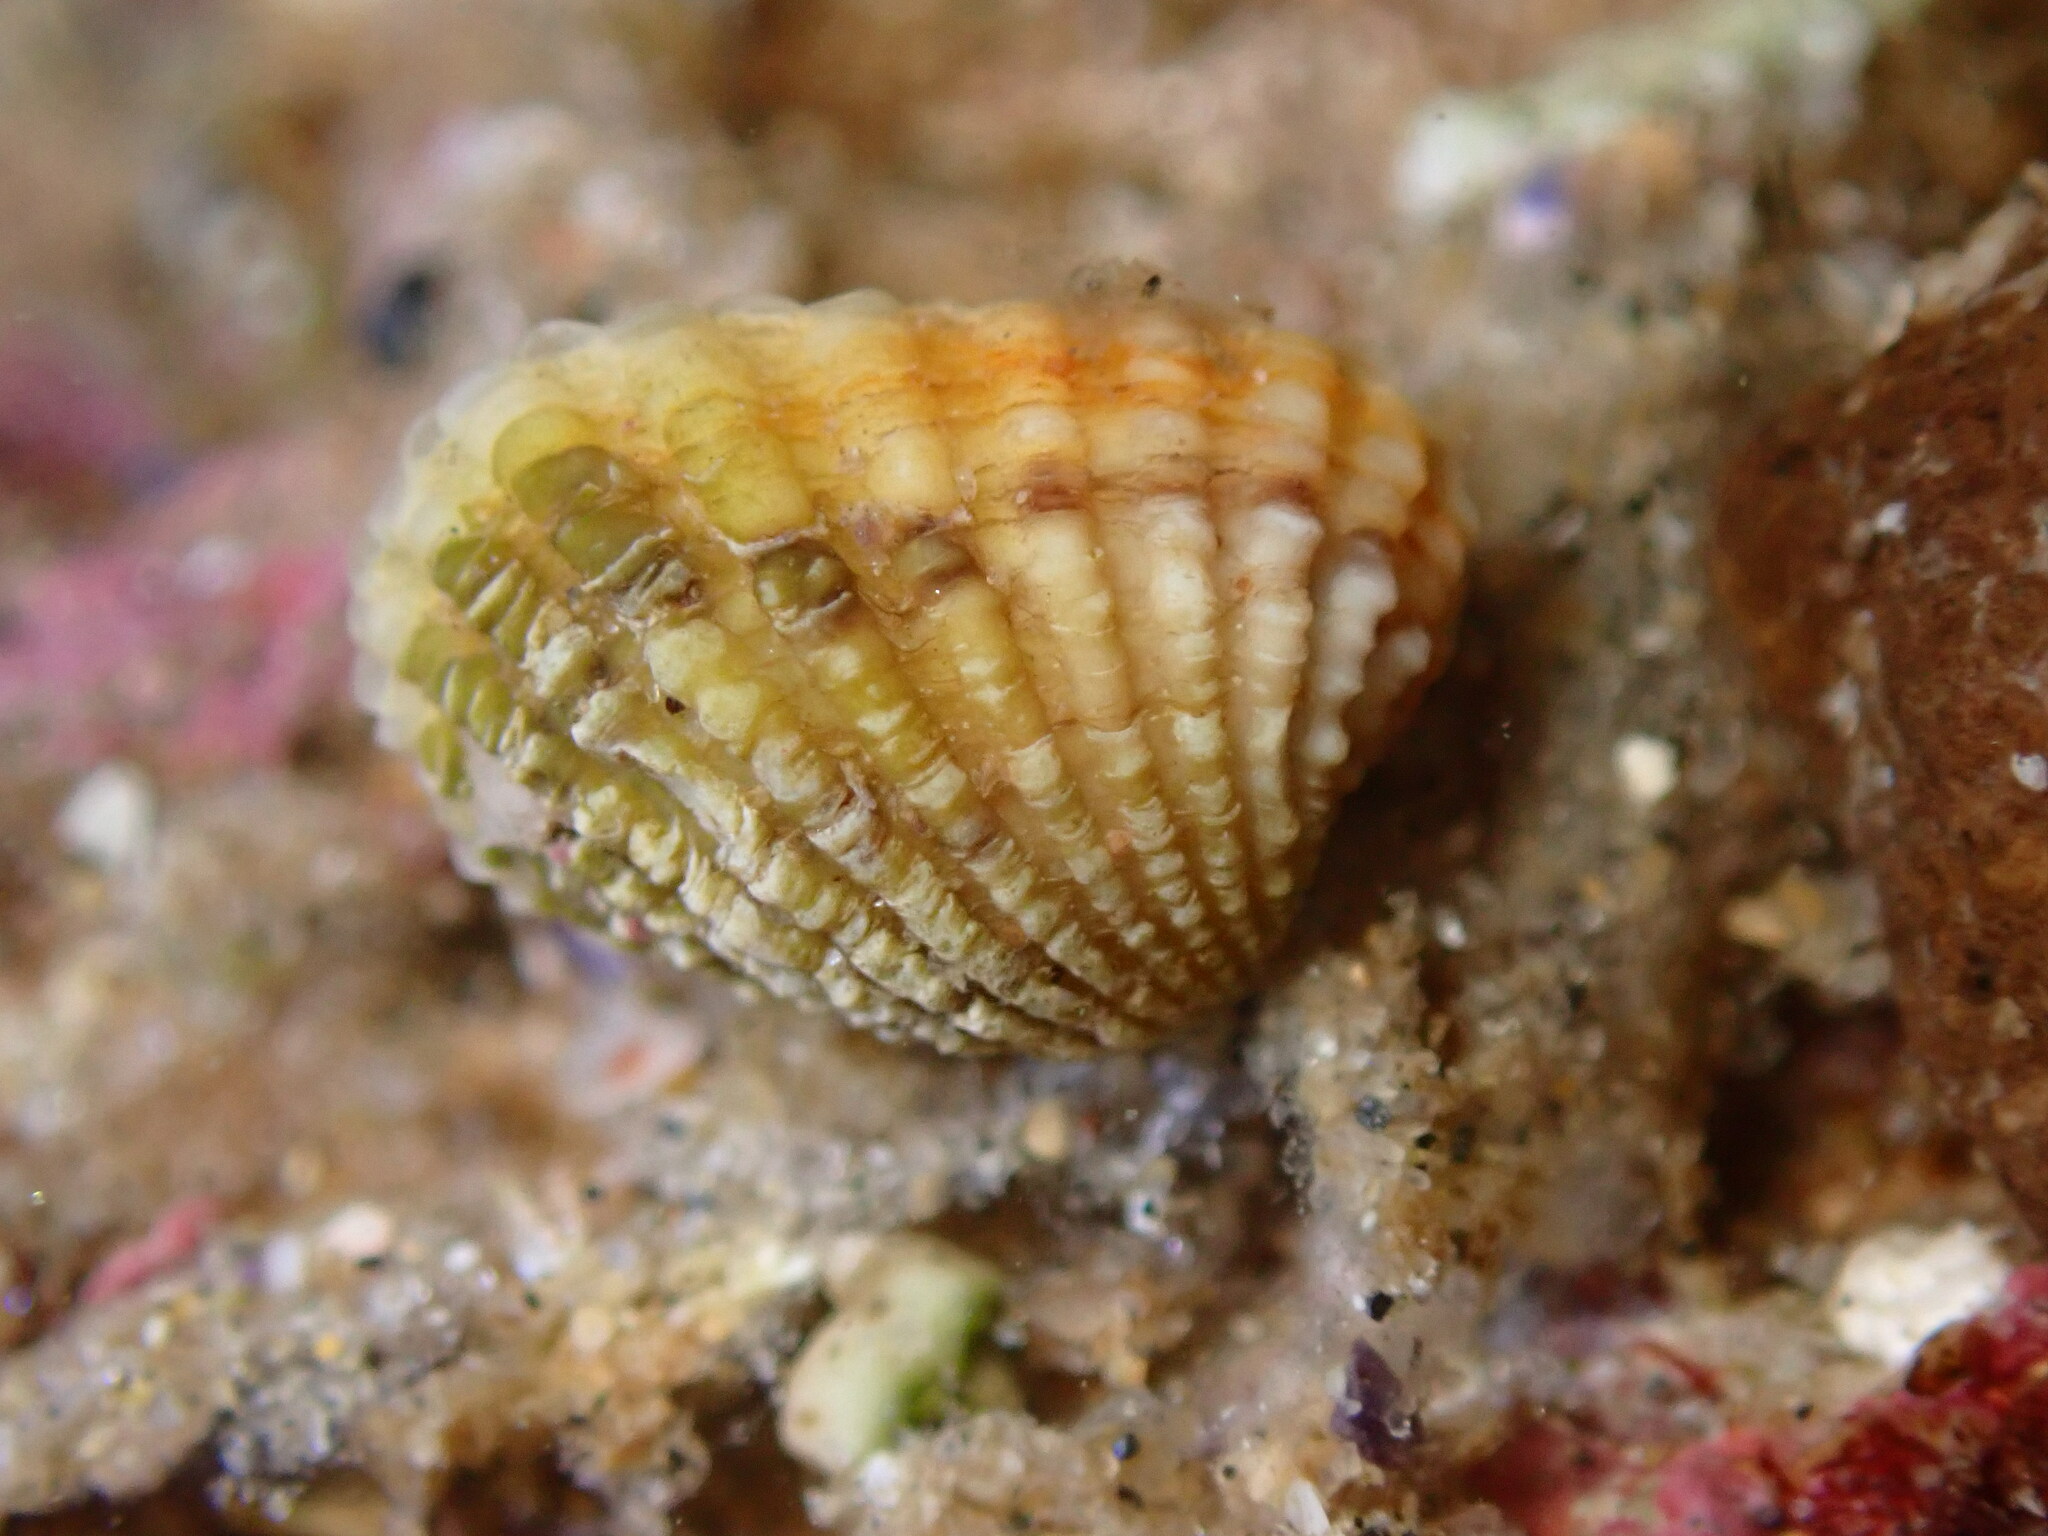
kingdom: Animalia
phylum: Mollusca
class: Bivalvia
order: Carditida
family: Carditidae
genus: Glans
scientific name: Glans carpenteri
